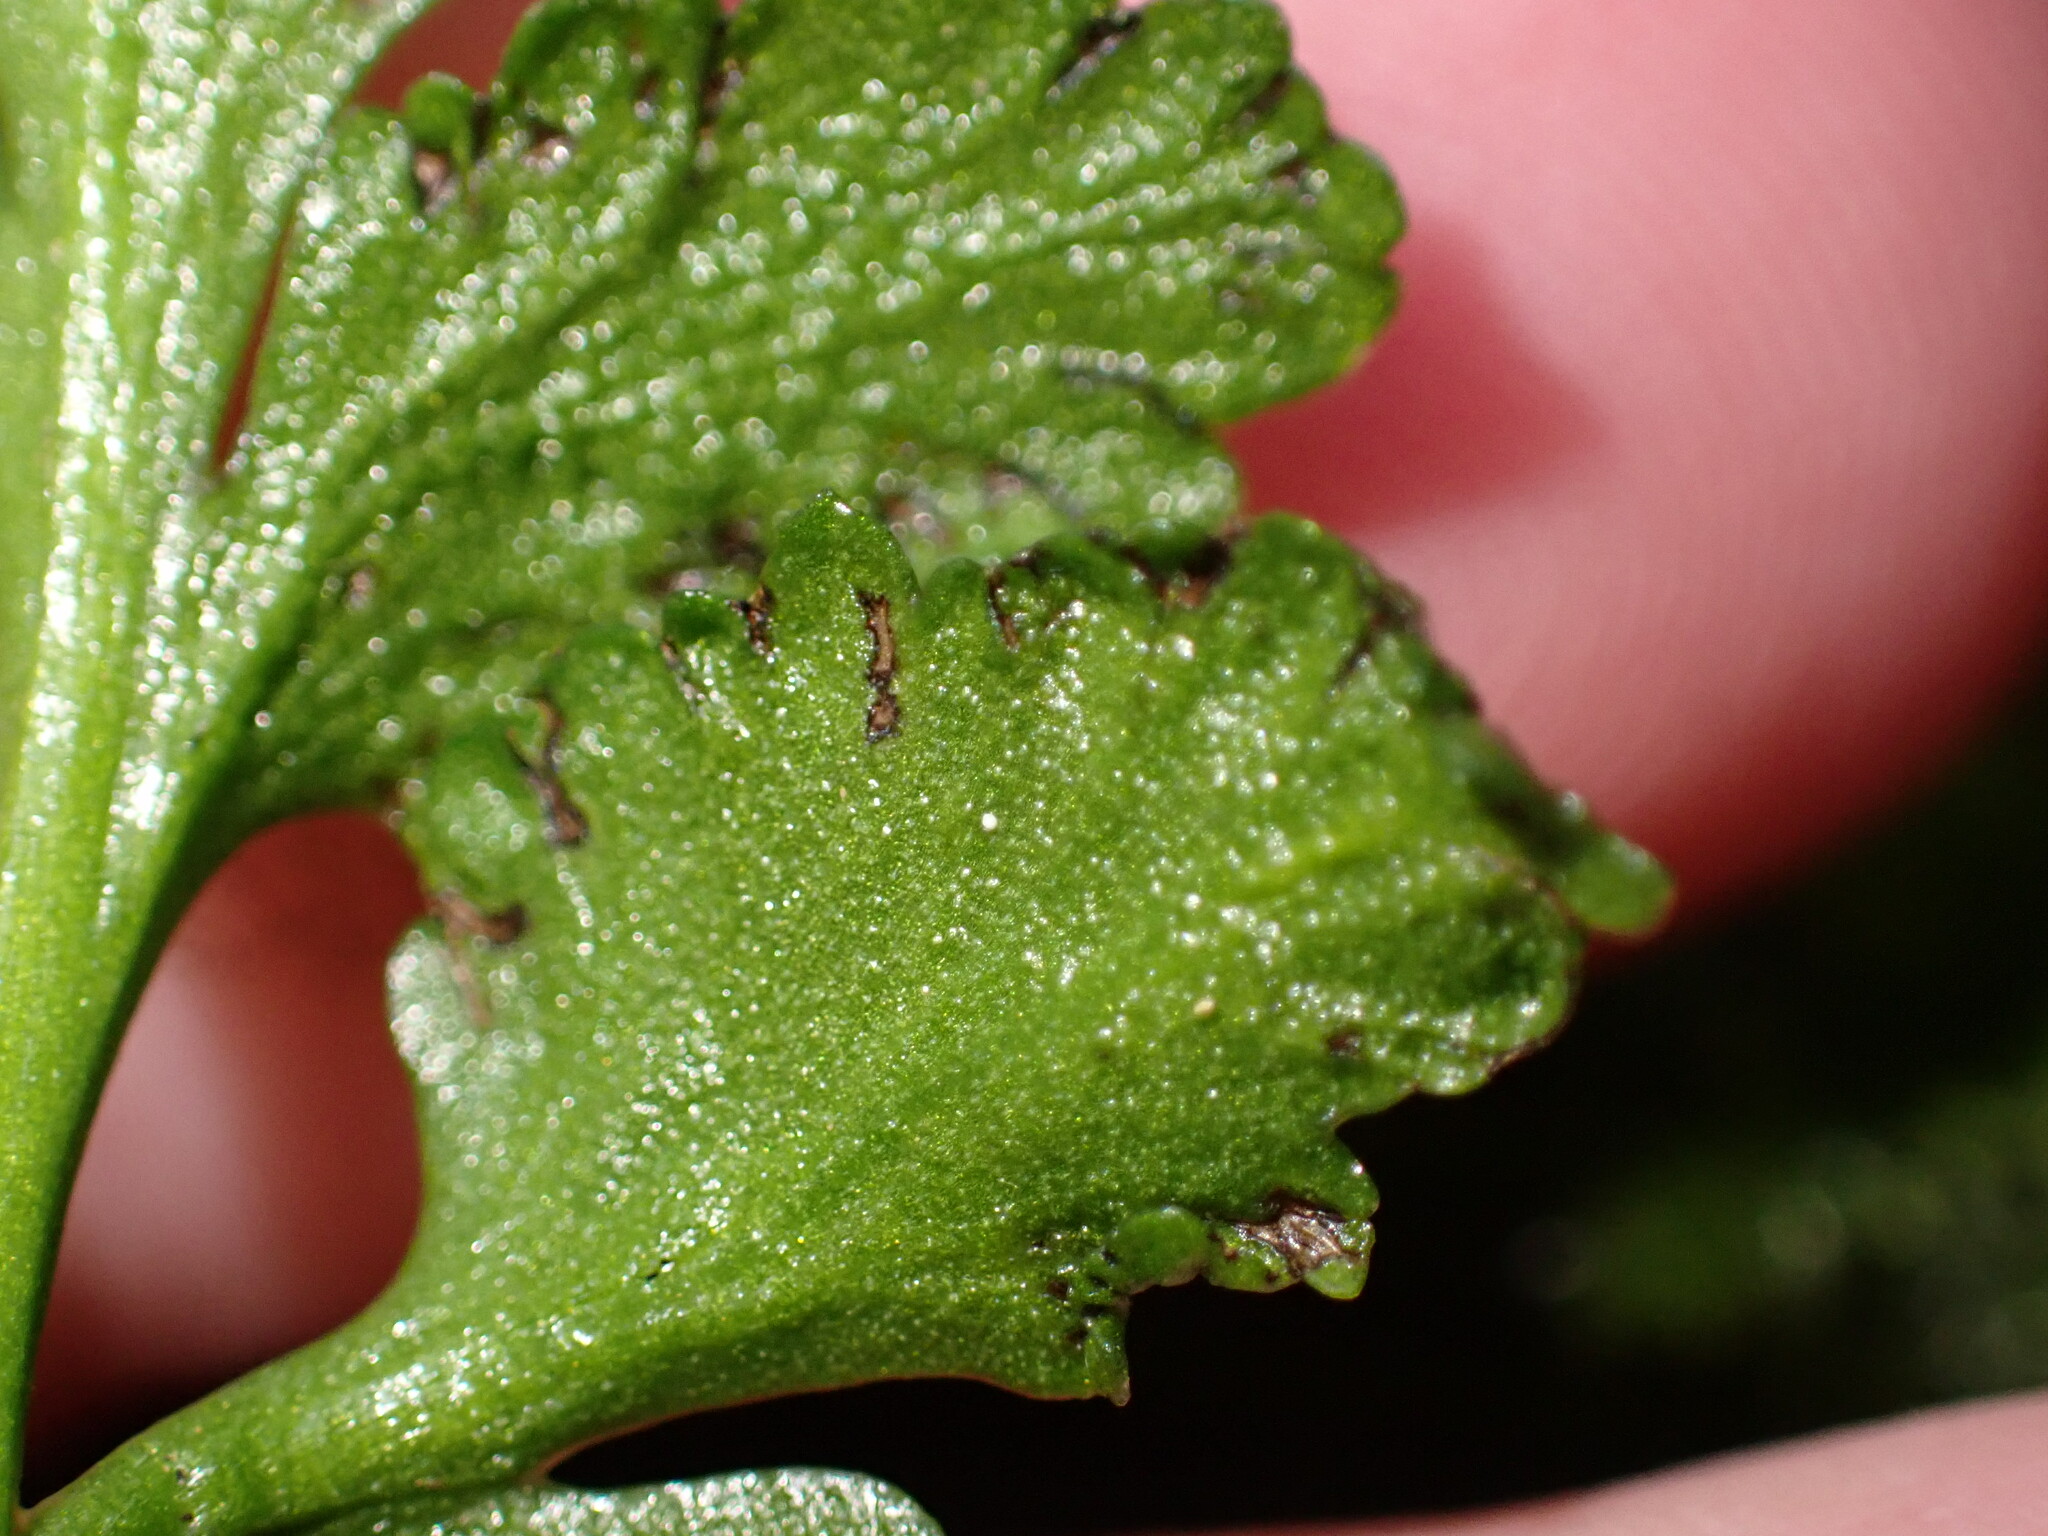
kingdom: Plantae
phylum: Tracheophyta
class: Polypodiopsida
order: Ophioglossales
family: Ophioglossaceae
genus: Sceptridium
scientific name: Sceptridium multifidum
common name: Leathery grape fern
